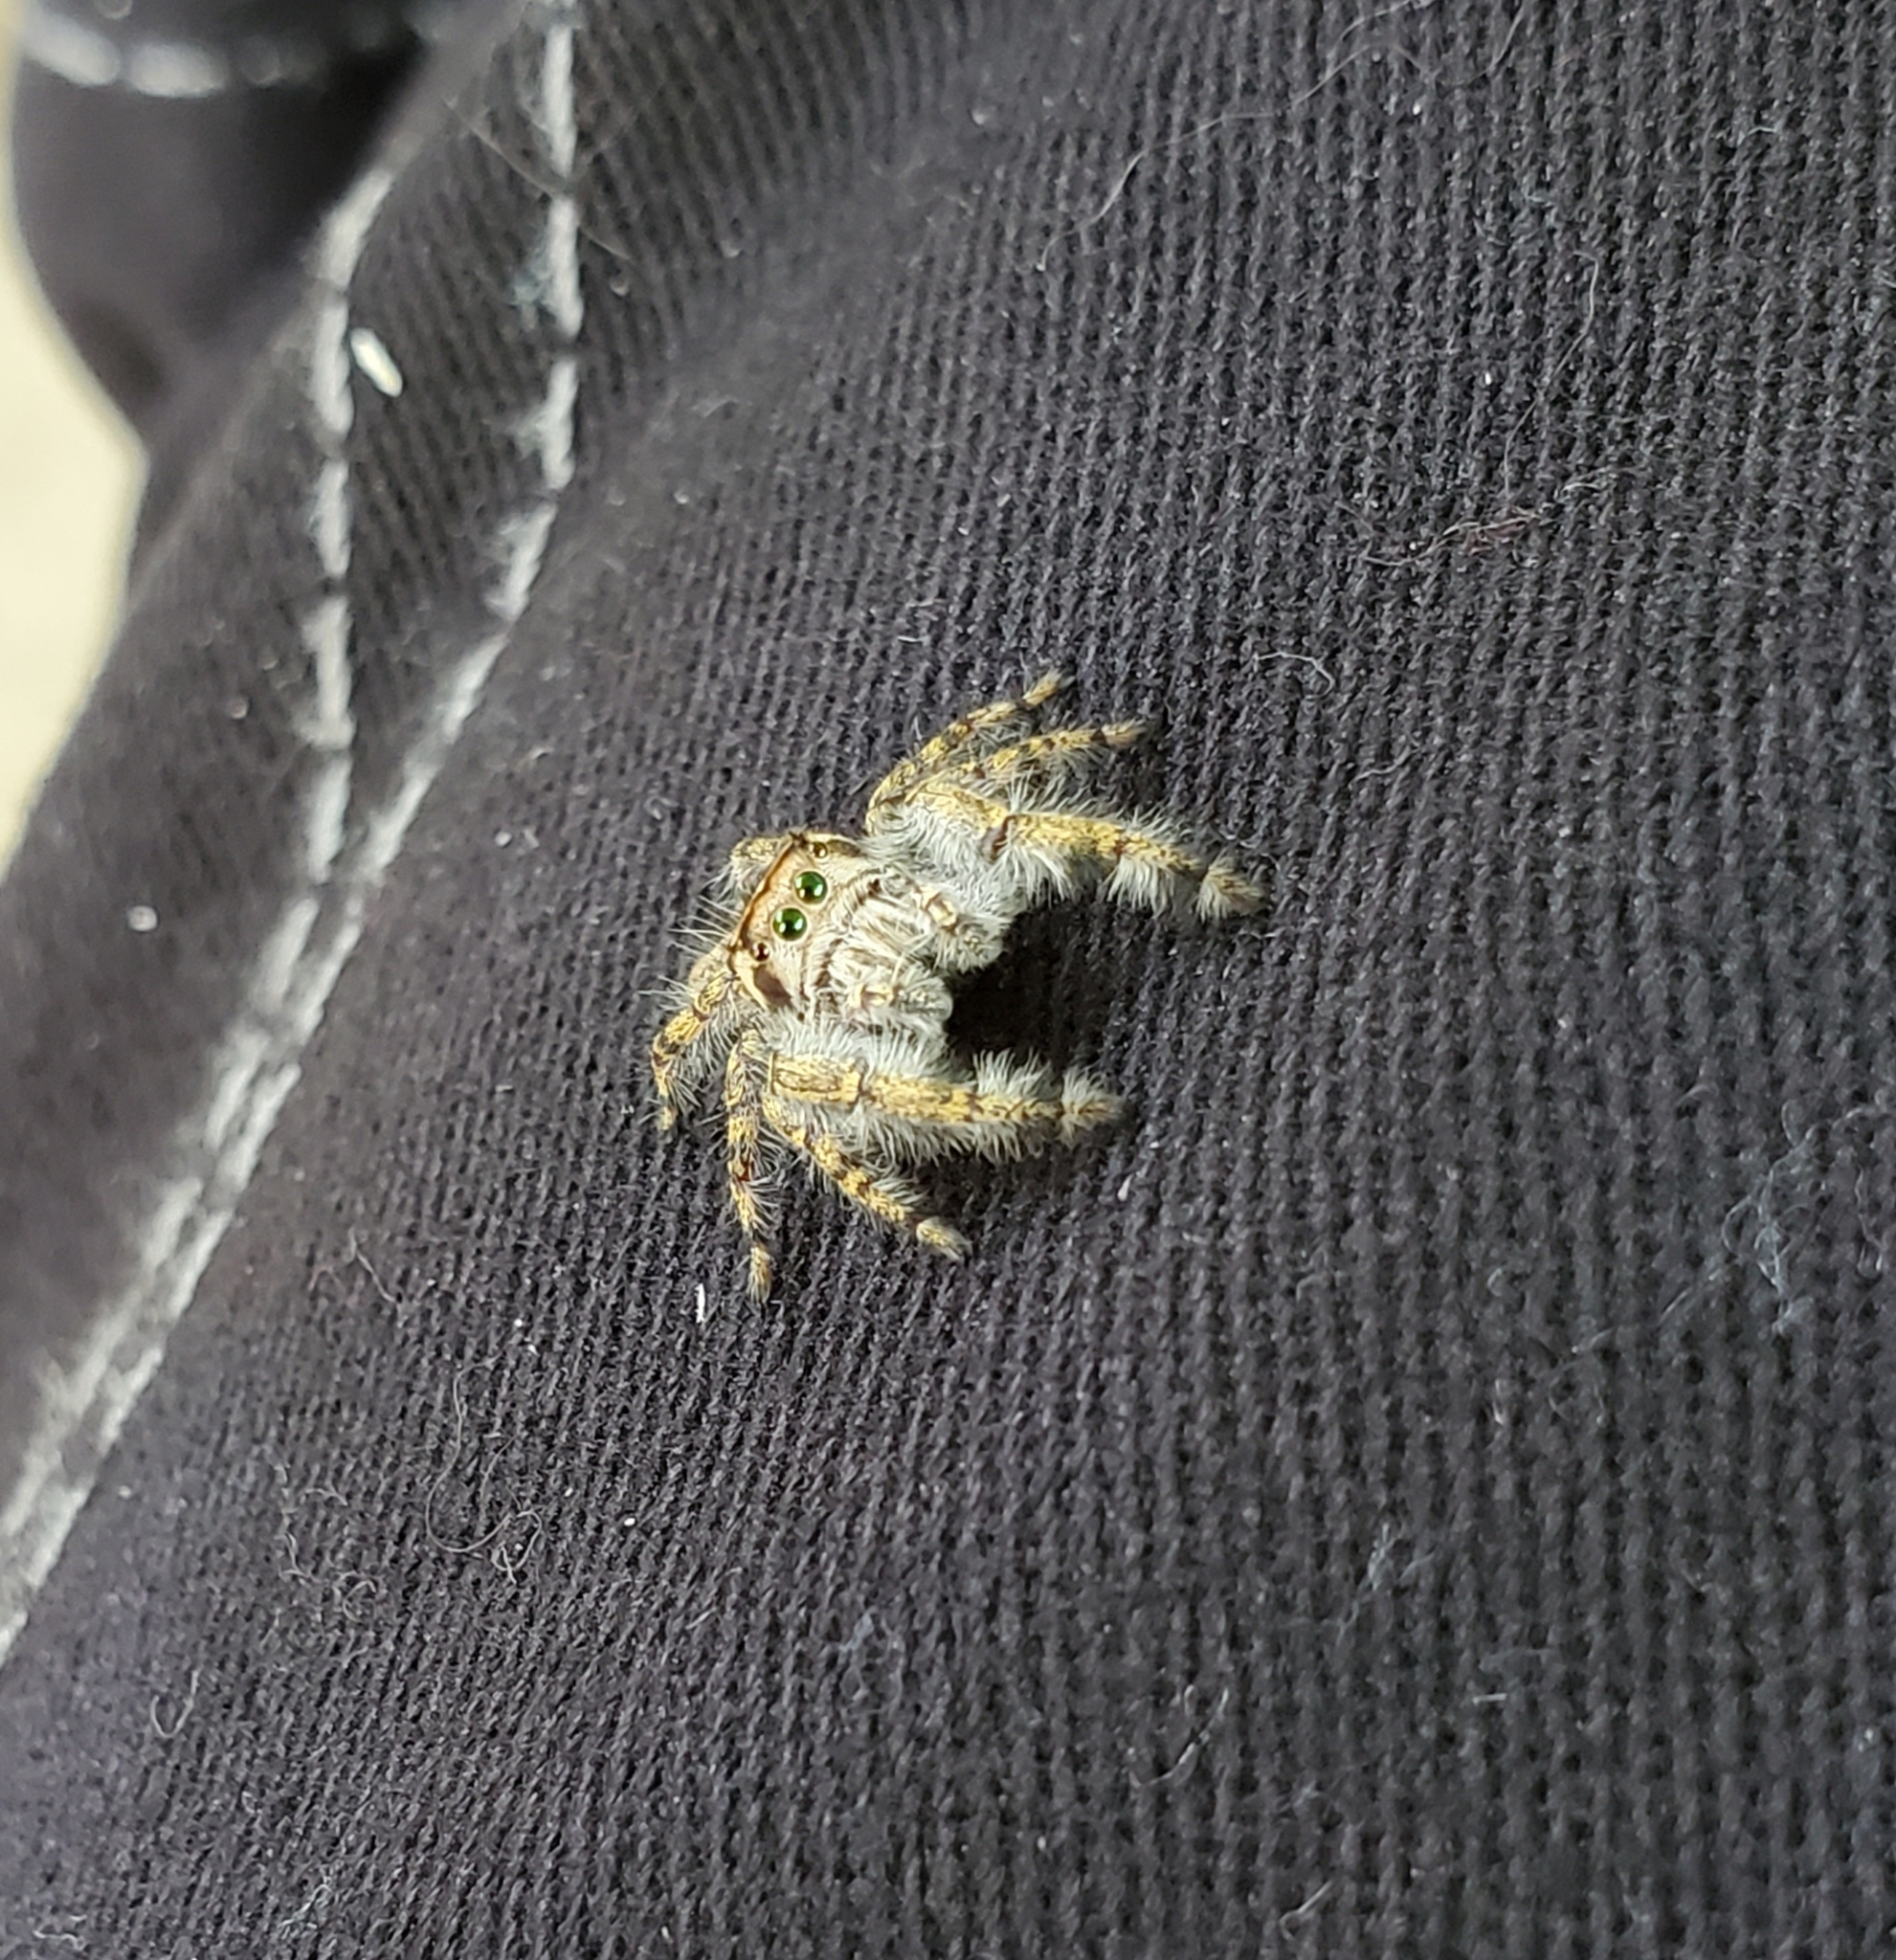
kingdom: Animalia
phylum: Arthropoda
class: Arachnida
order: Araneae
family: Salticidae
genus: Phidippus
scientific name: Phidippus pruinosus
